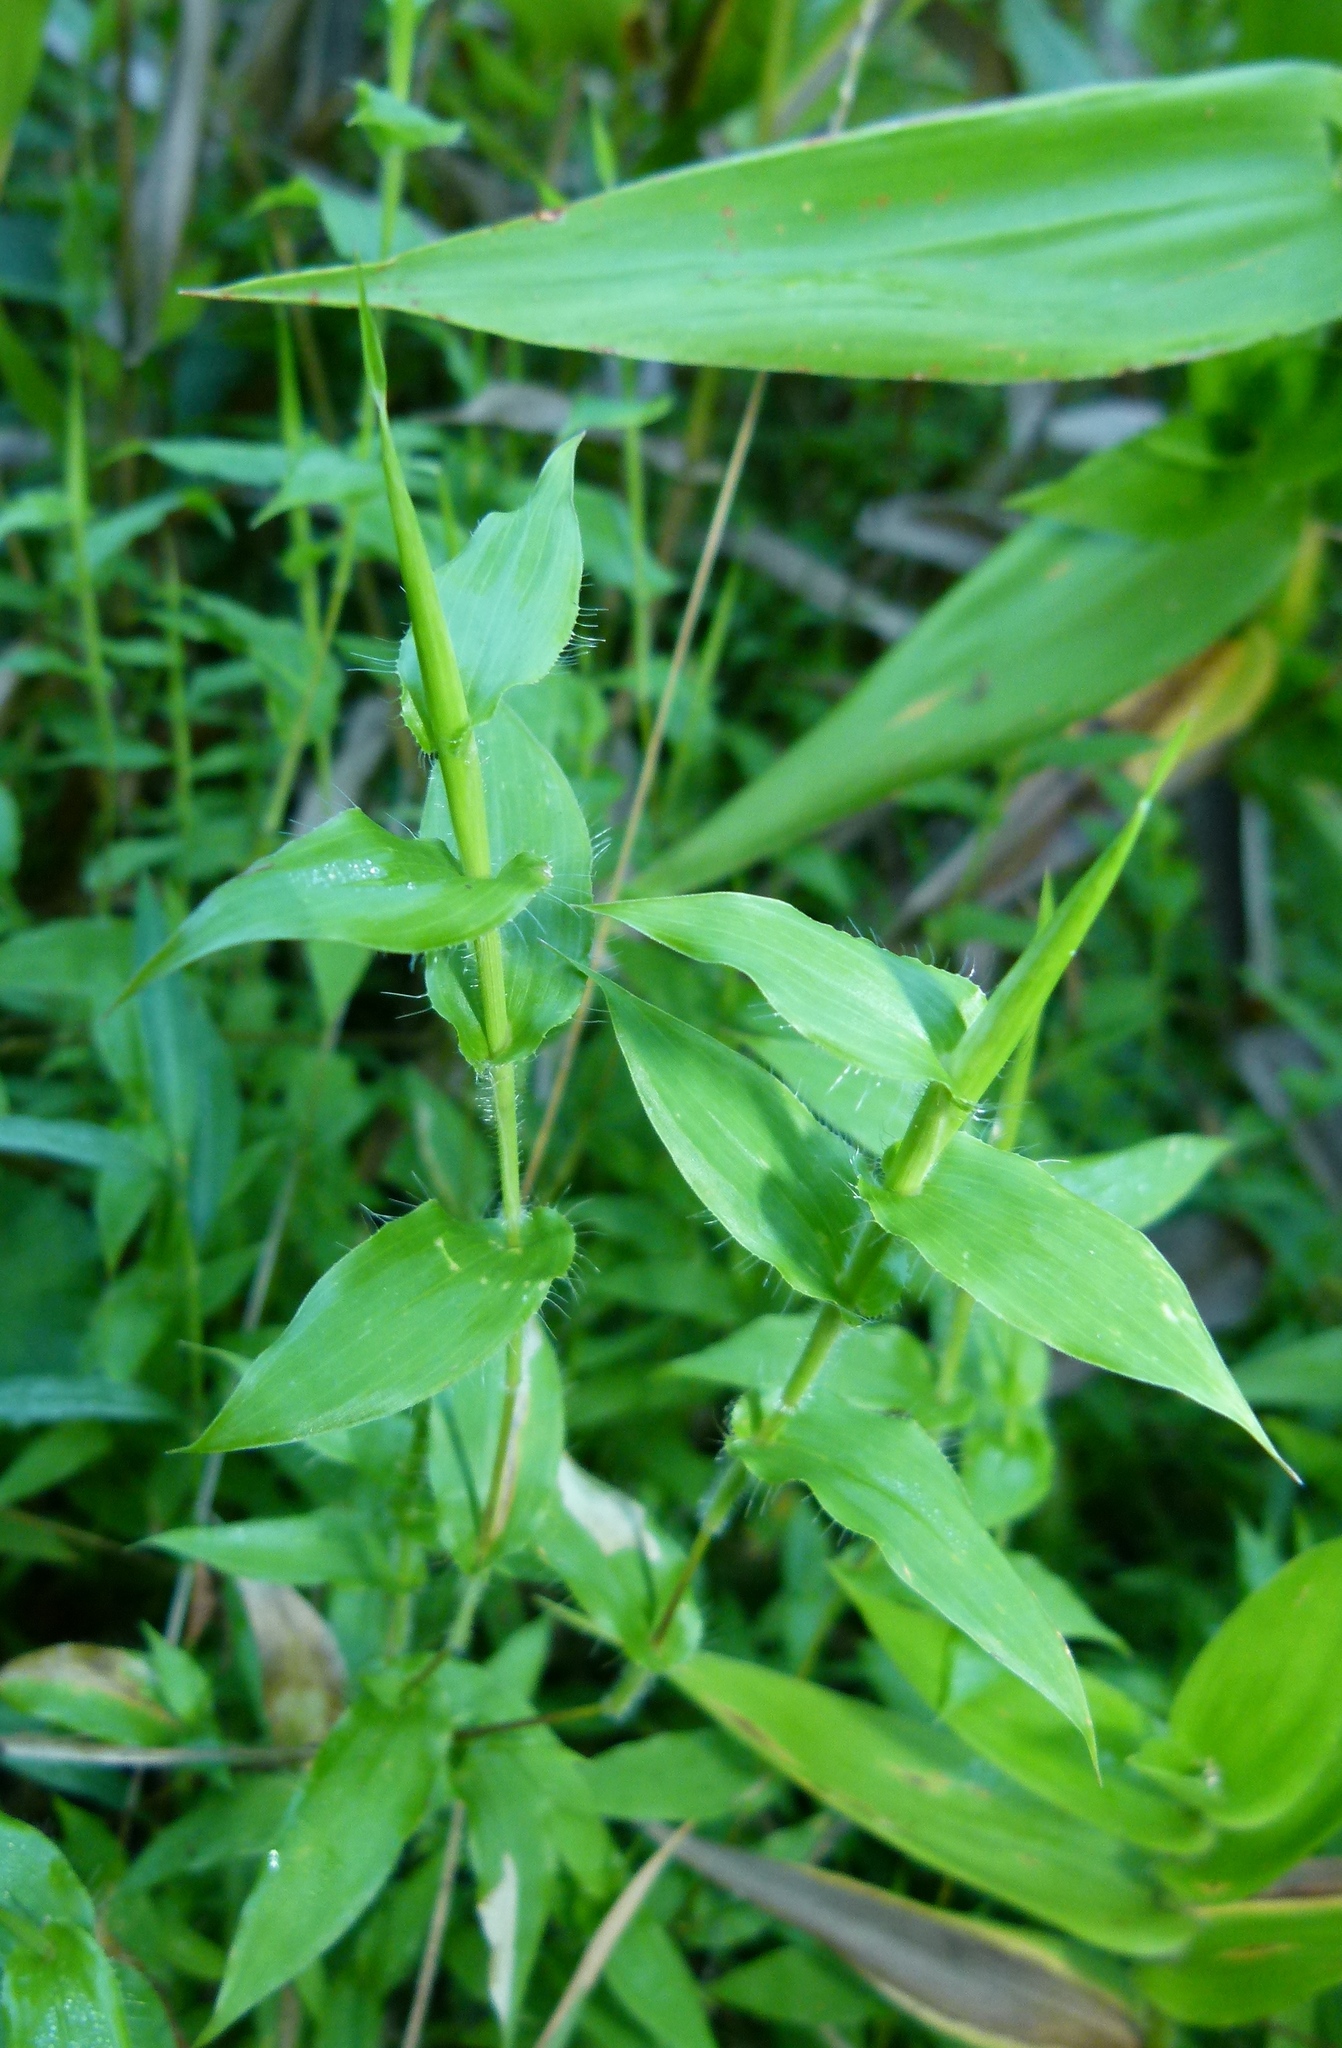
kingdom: Plantae
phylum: Tracheophyta
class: Liliopsida
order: Poales
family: Poaceae
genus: Arthraxon
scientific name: Arthraxon hispidus
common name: Small carpgrass
